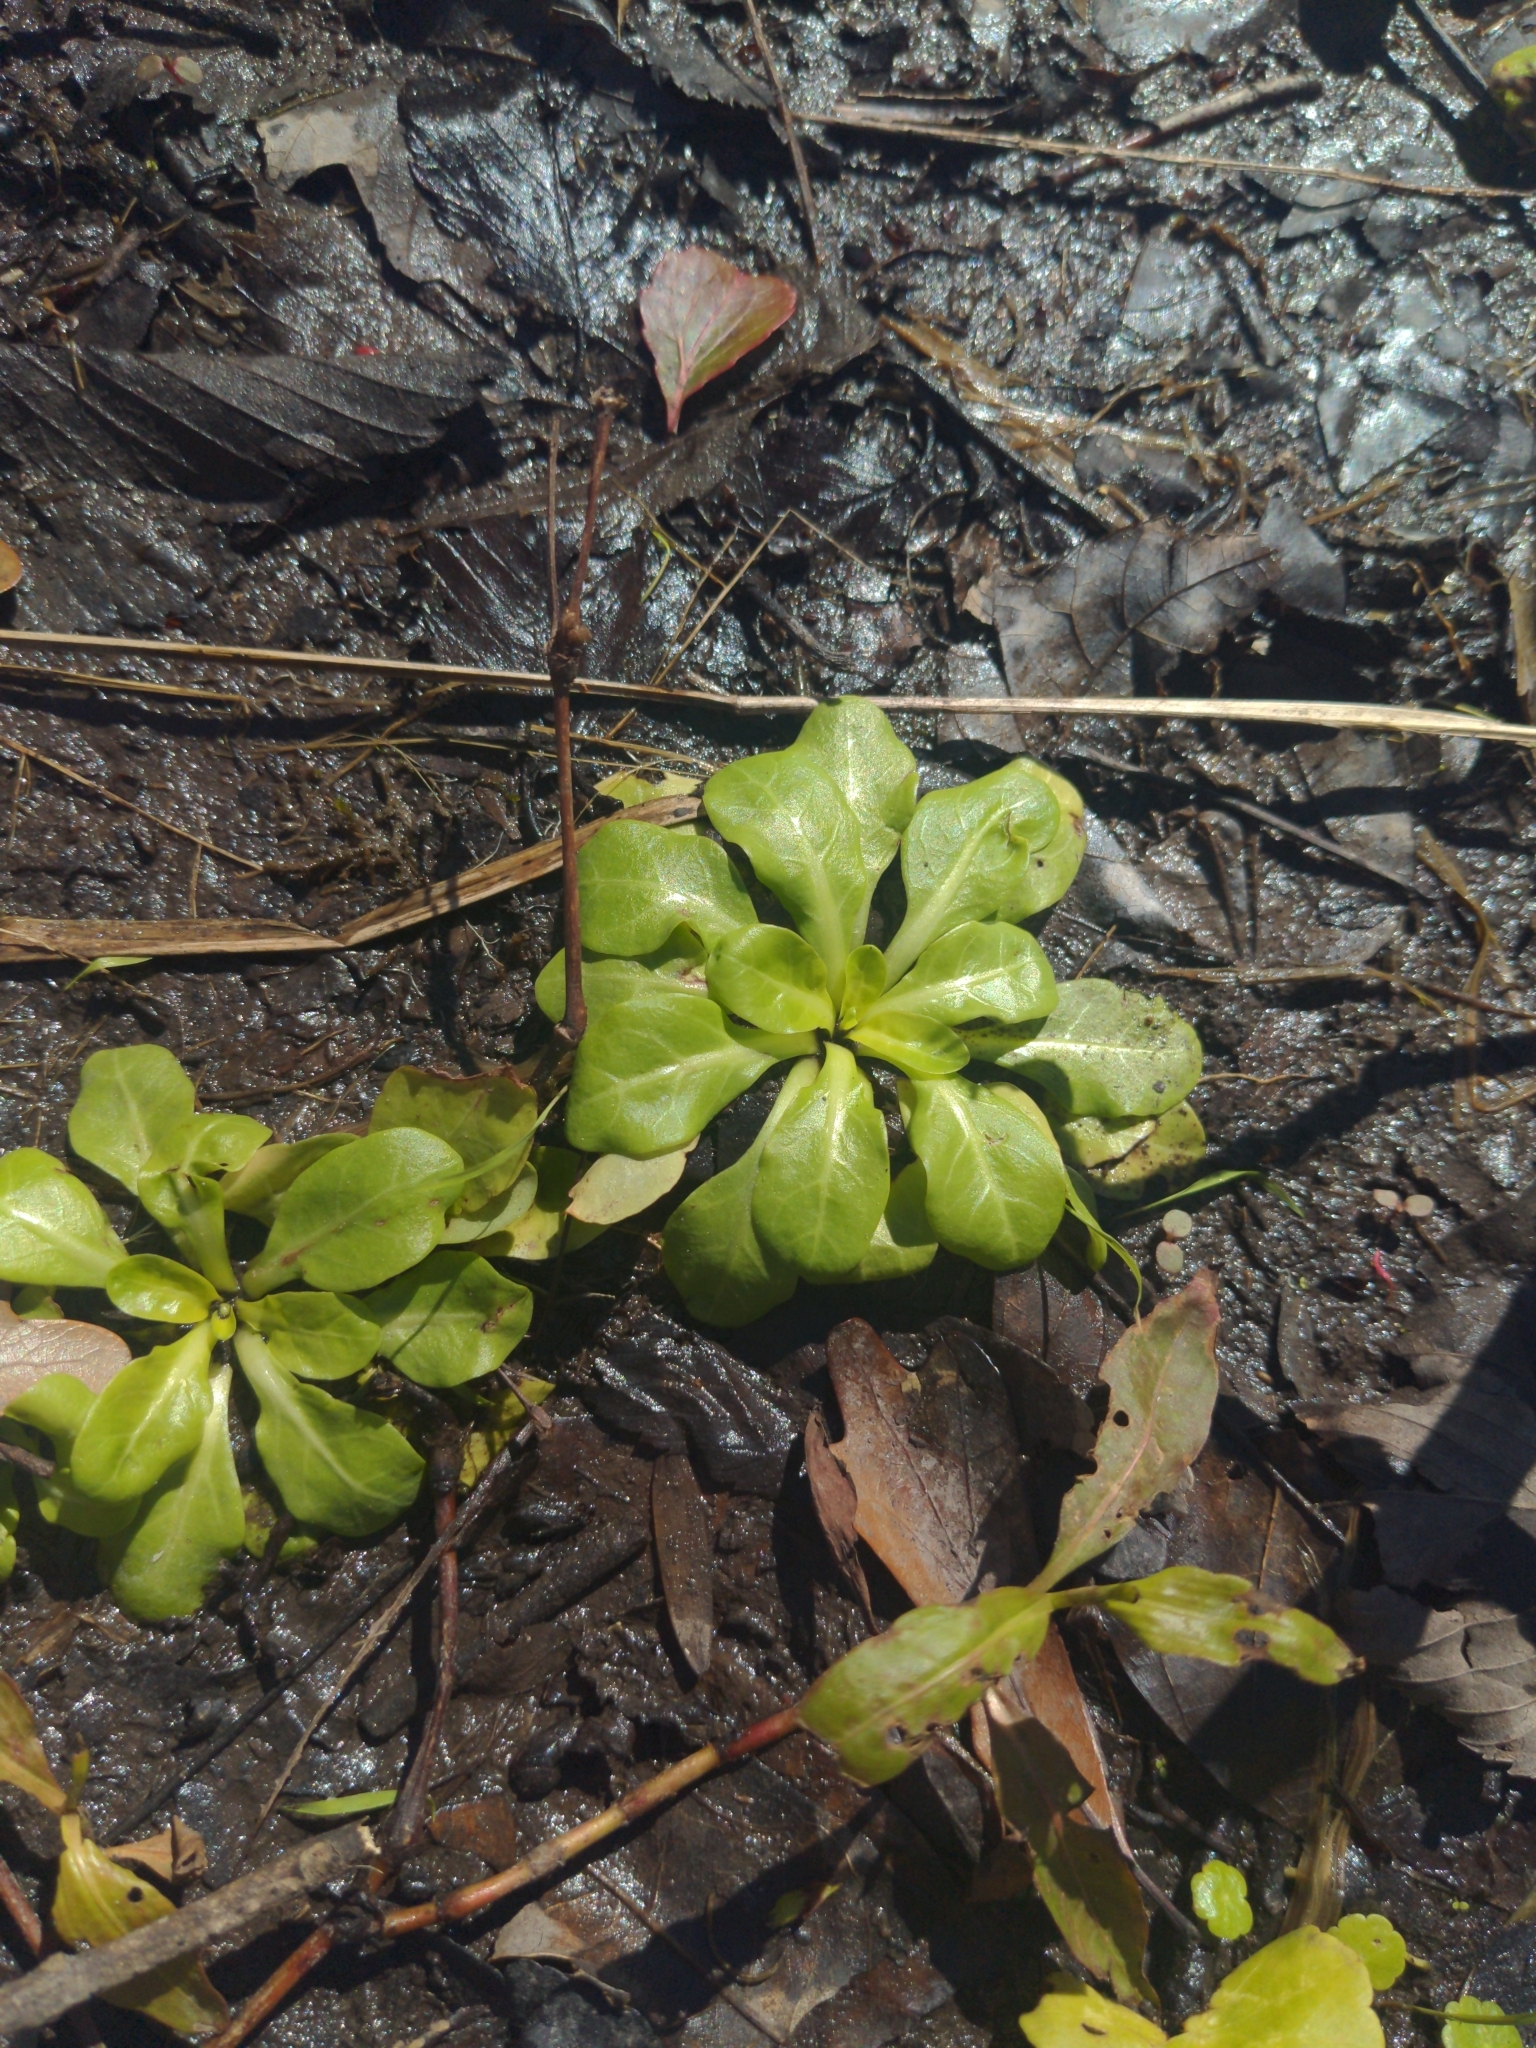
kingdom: Plantae
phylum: Tracheophyta
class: Magnoliopsida
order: Ericales
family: Primulaceae
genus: Samolus
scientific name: Samolus parviflorus
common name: False water pimpernel
